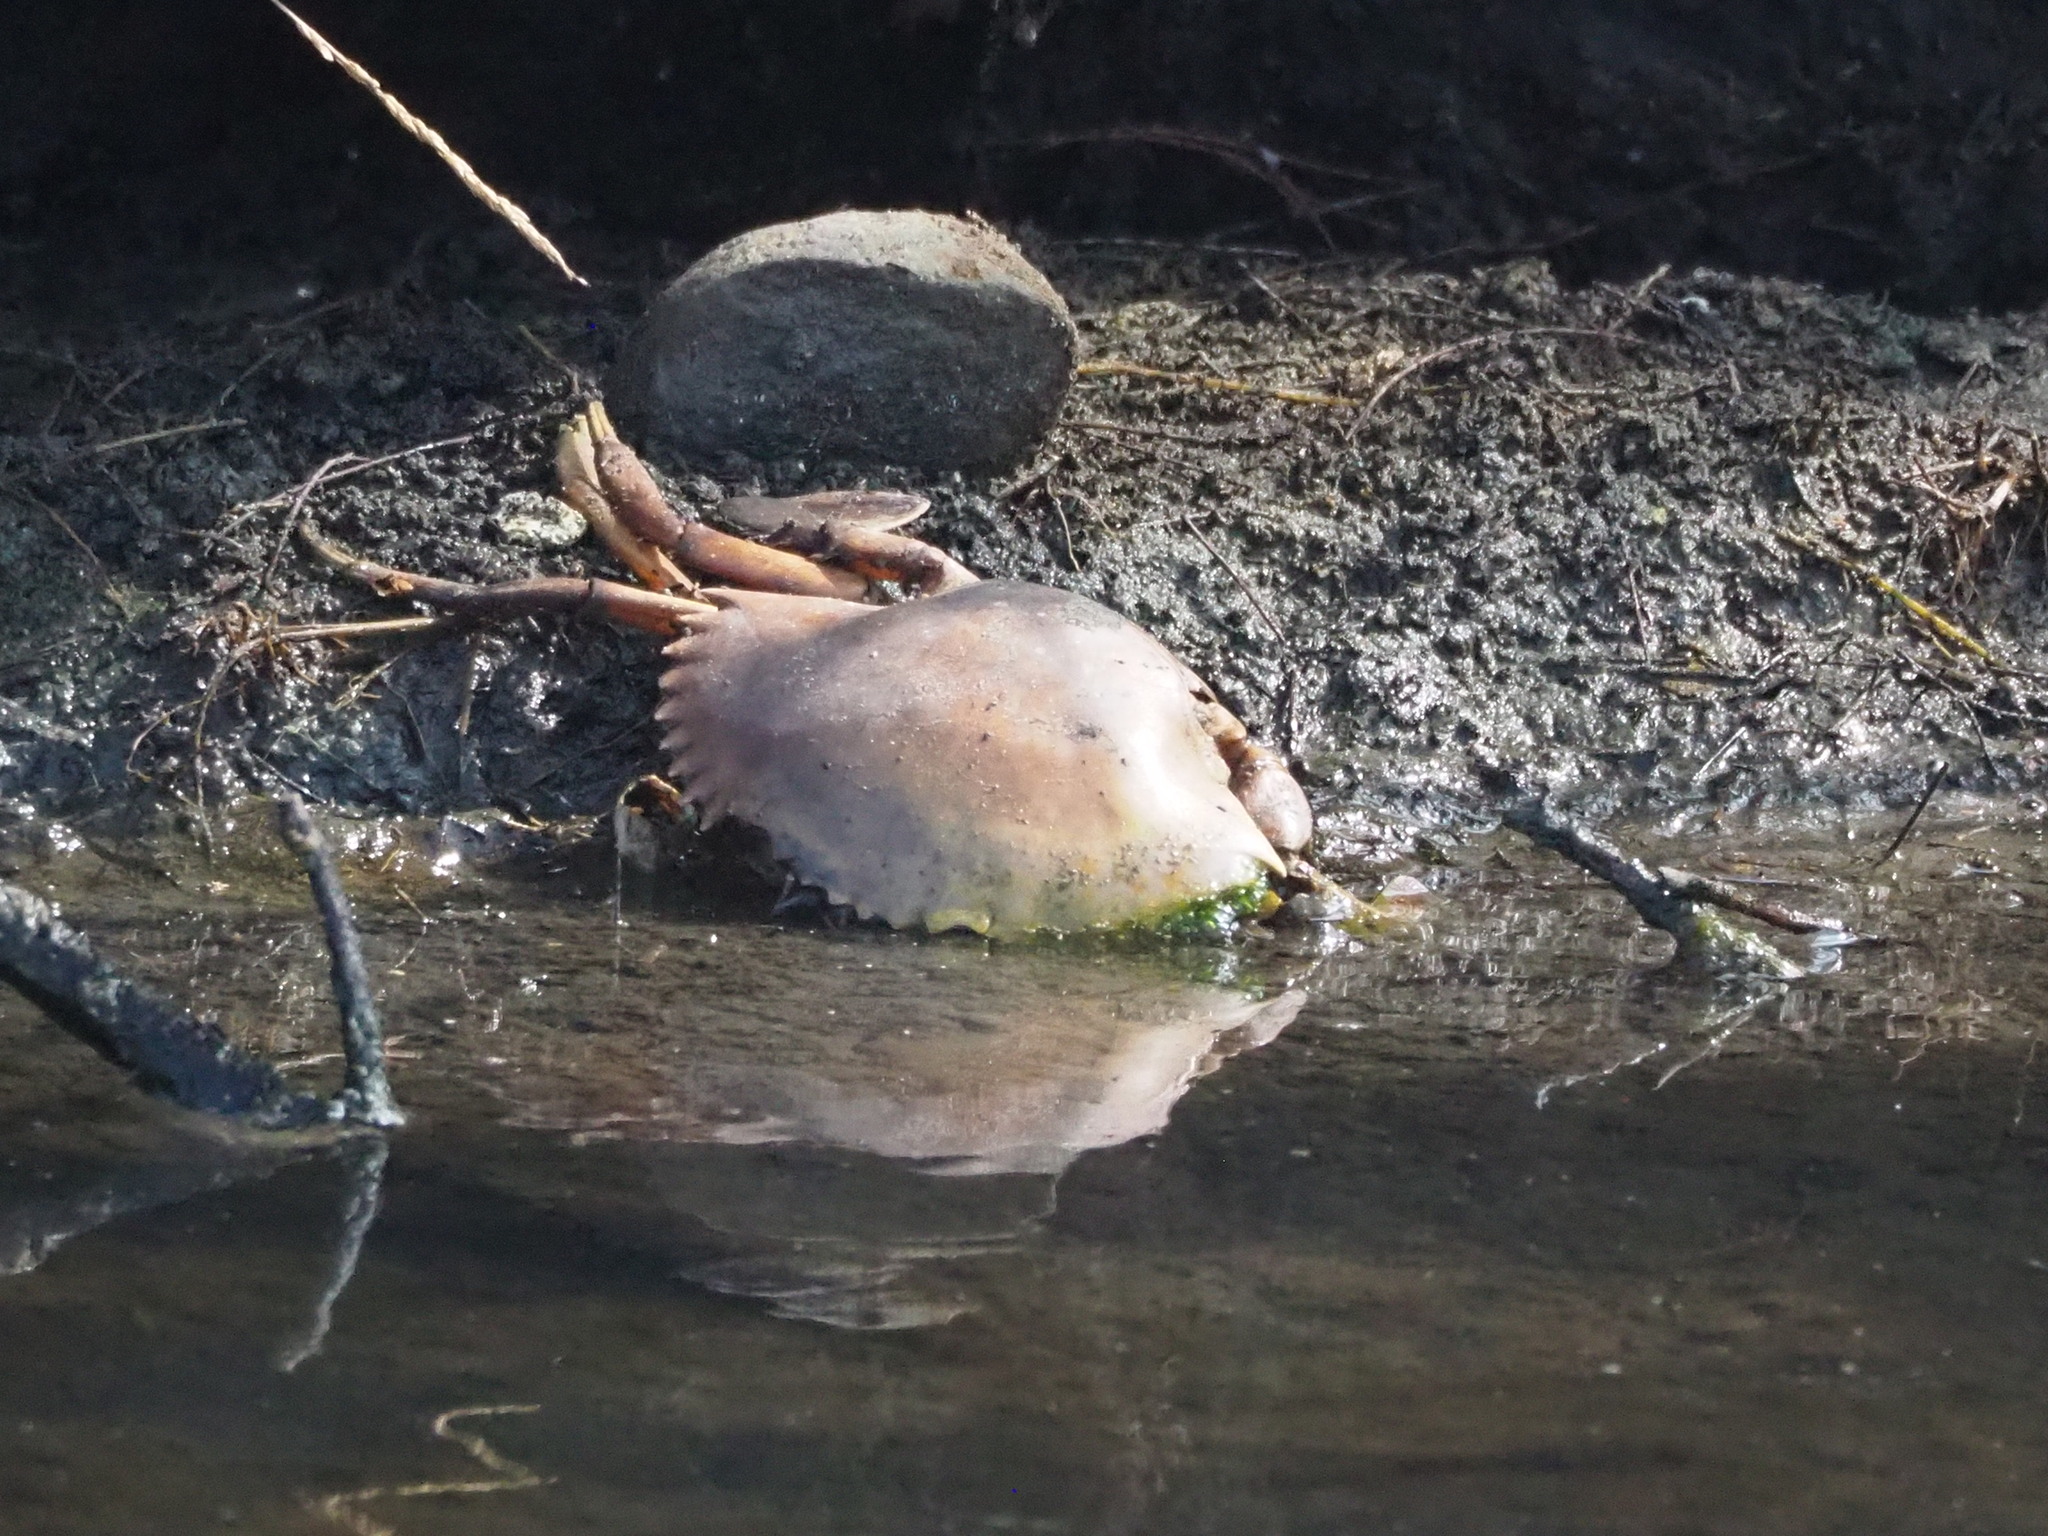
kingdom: Animalia
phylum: Arthropoda
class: Malacostraca
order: Decapoda
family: Portunidae
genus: Scylla
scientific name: Scylla serrata
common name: Giant mud crab
